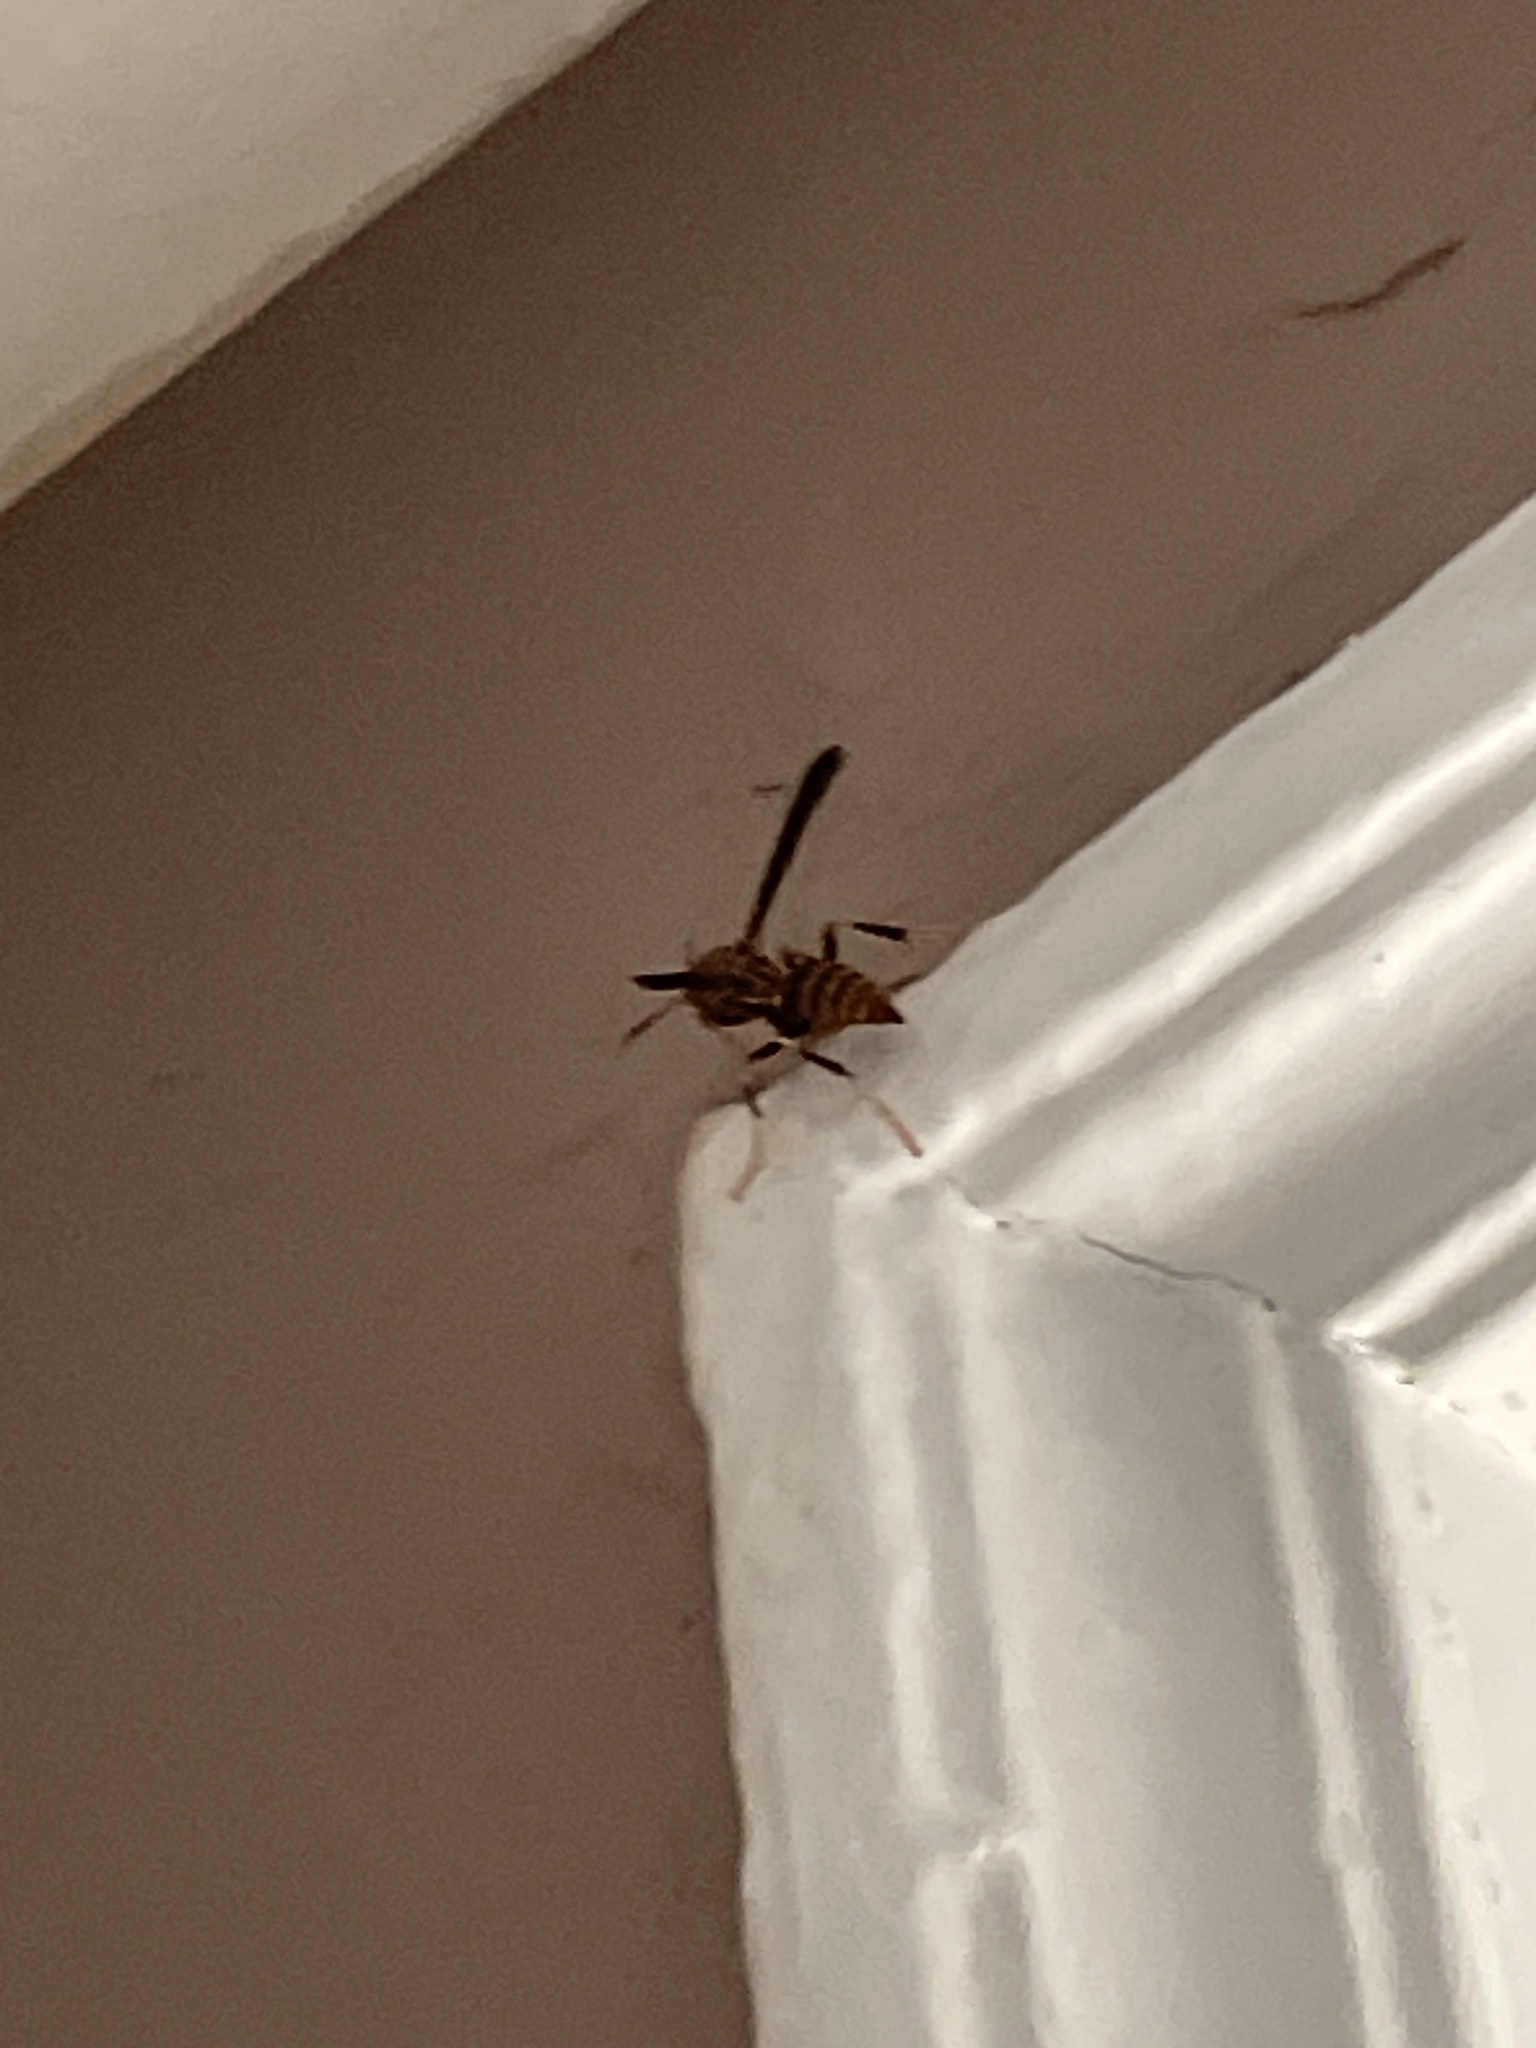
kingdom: Animalia
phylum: Arthropoda
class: Insecta
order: Hymenoptera
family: Eumenidae
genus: Polistes
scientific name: Polistes exclamans
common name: Paper wasp
